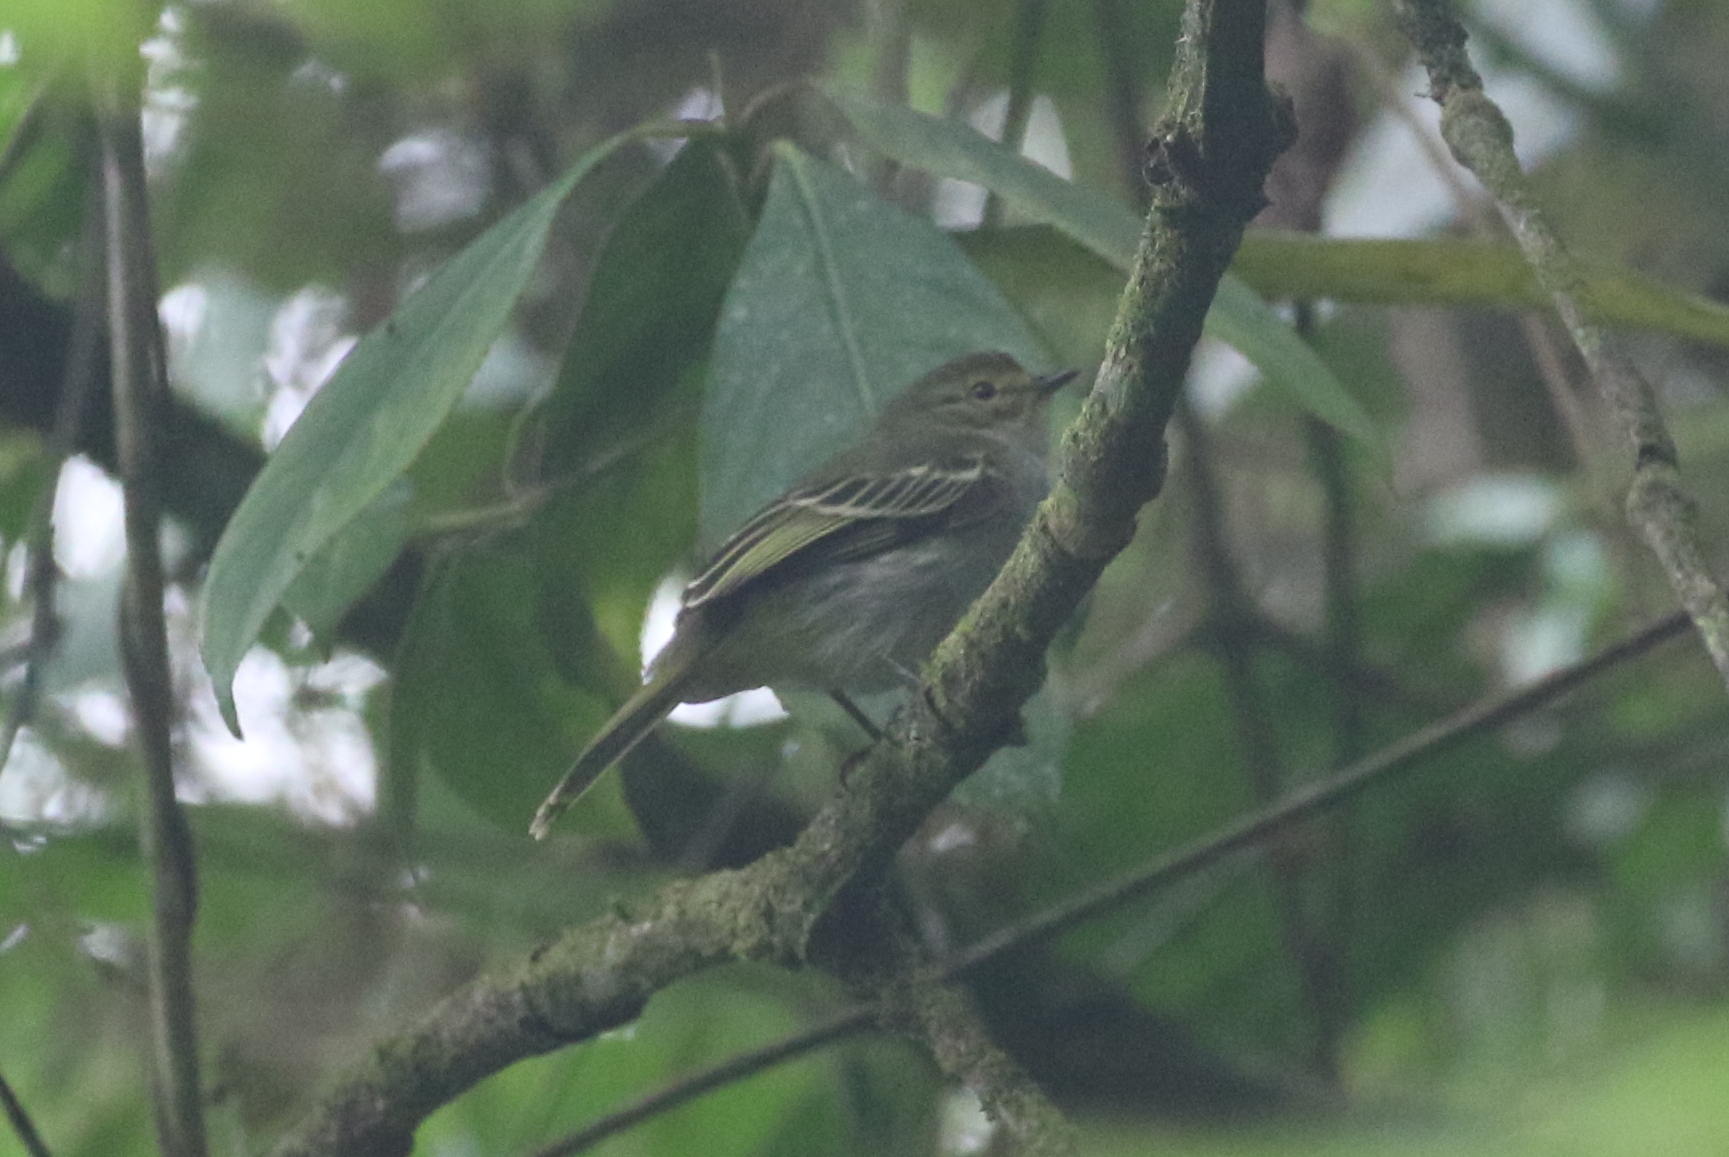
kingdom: Animalia
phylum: Chordata
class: Aves
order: Passeriformes
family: Tyrannidae
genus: Zimmerius
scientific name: Zimmerius chrysops
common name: Golden-faced tyrannulet
